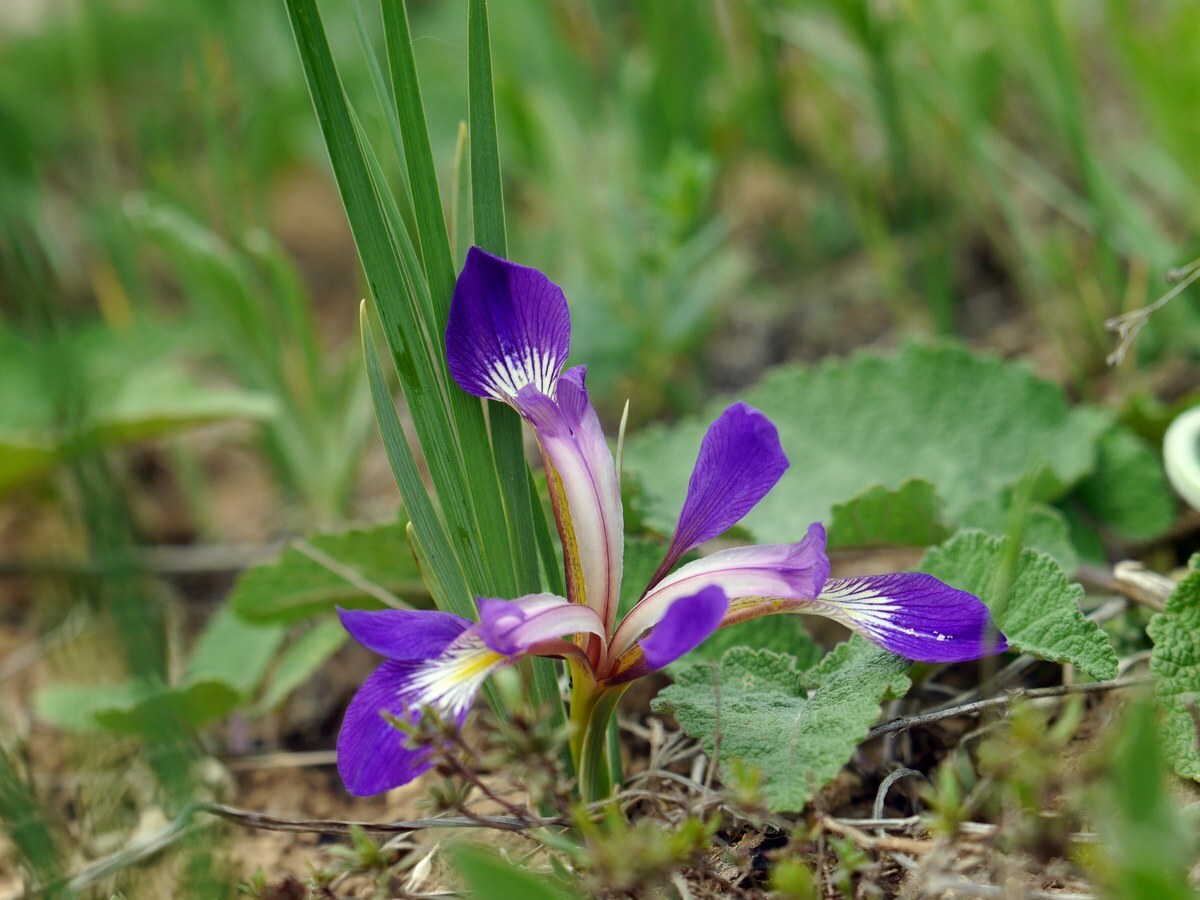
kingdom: Plantae
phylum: Tracheophyta
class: Liliopsida
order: Asparagales
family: Iridaceae
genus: Iris
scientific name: Iris pontica
